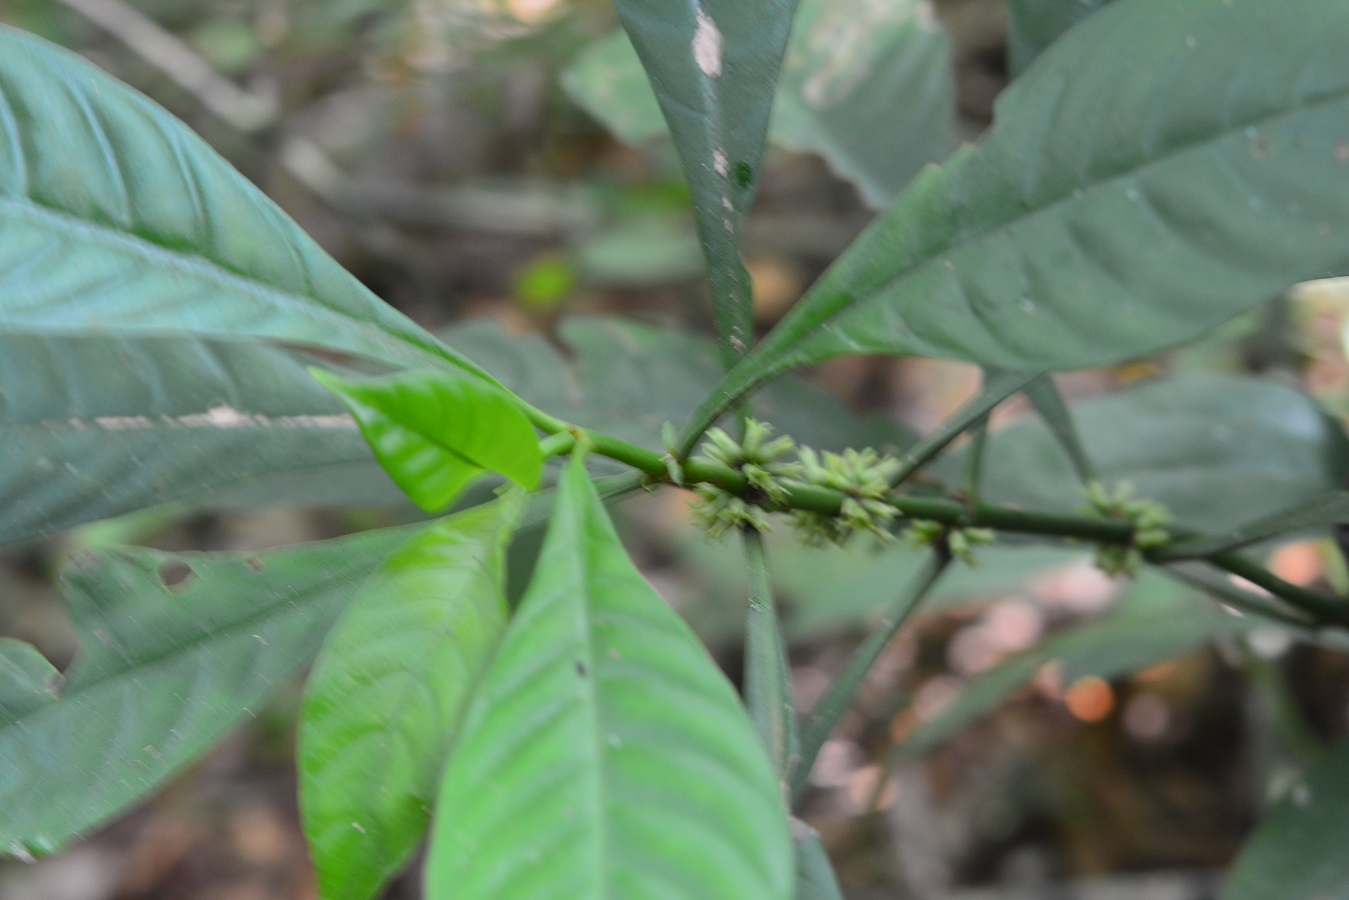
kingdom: Plantae
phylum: Tracheophyta
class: Magnoliopsida
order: Gentianales
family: Rubiaceae
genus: Hoffmannia
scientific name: Hoffmannia nicotianifolia
